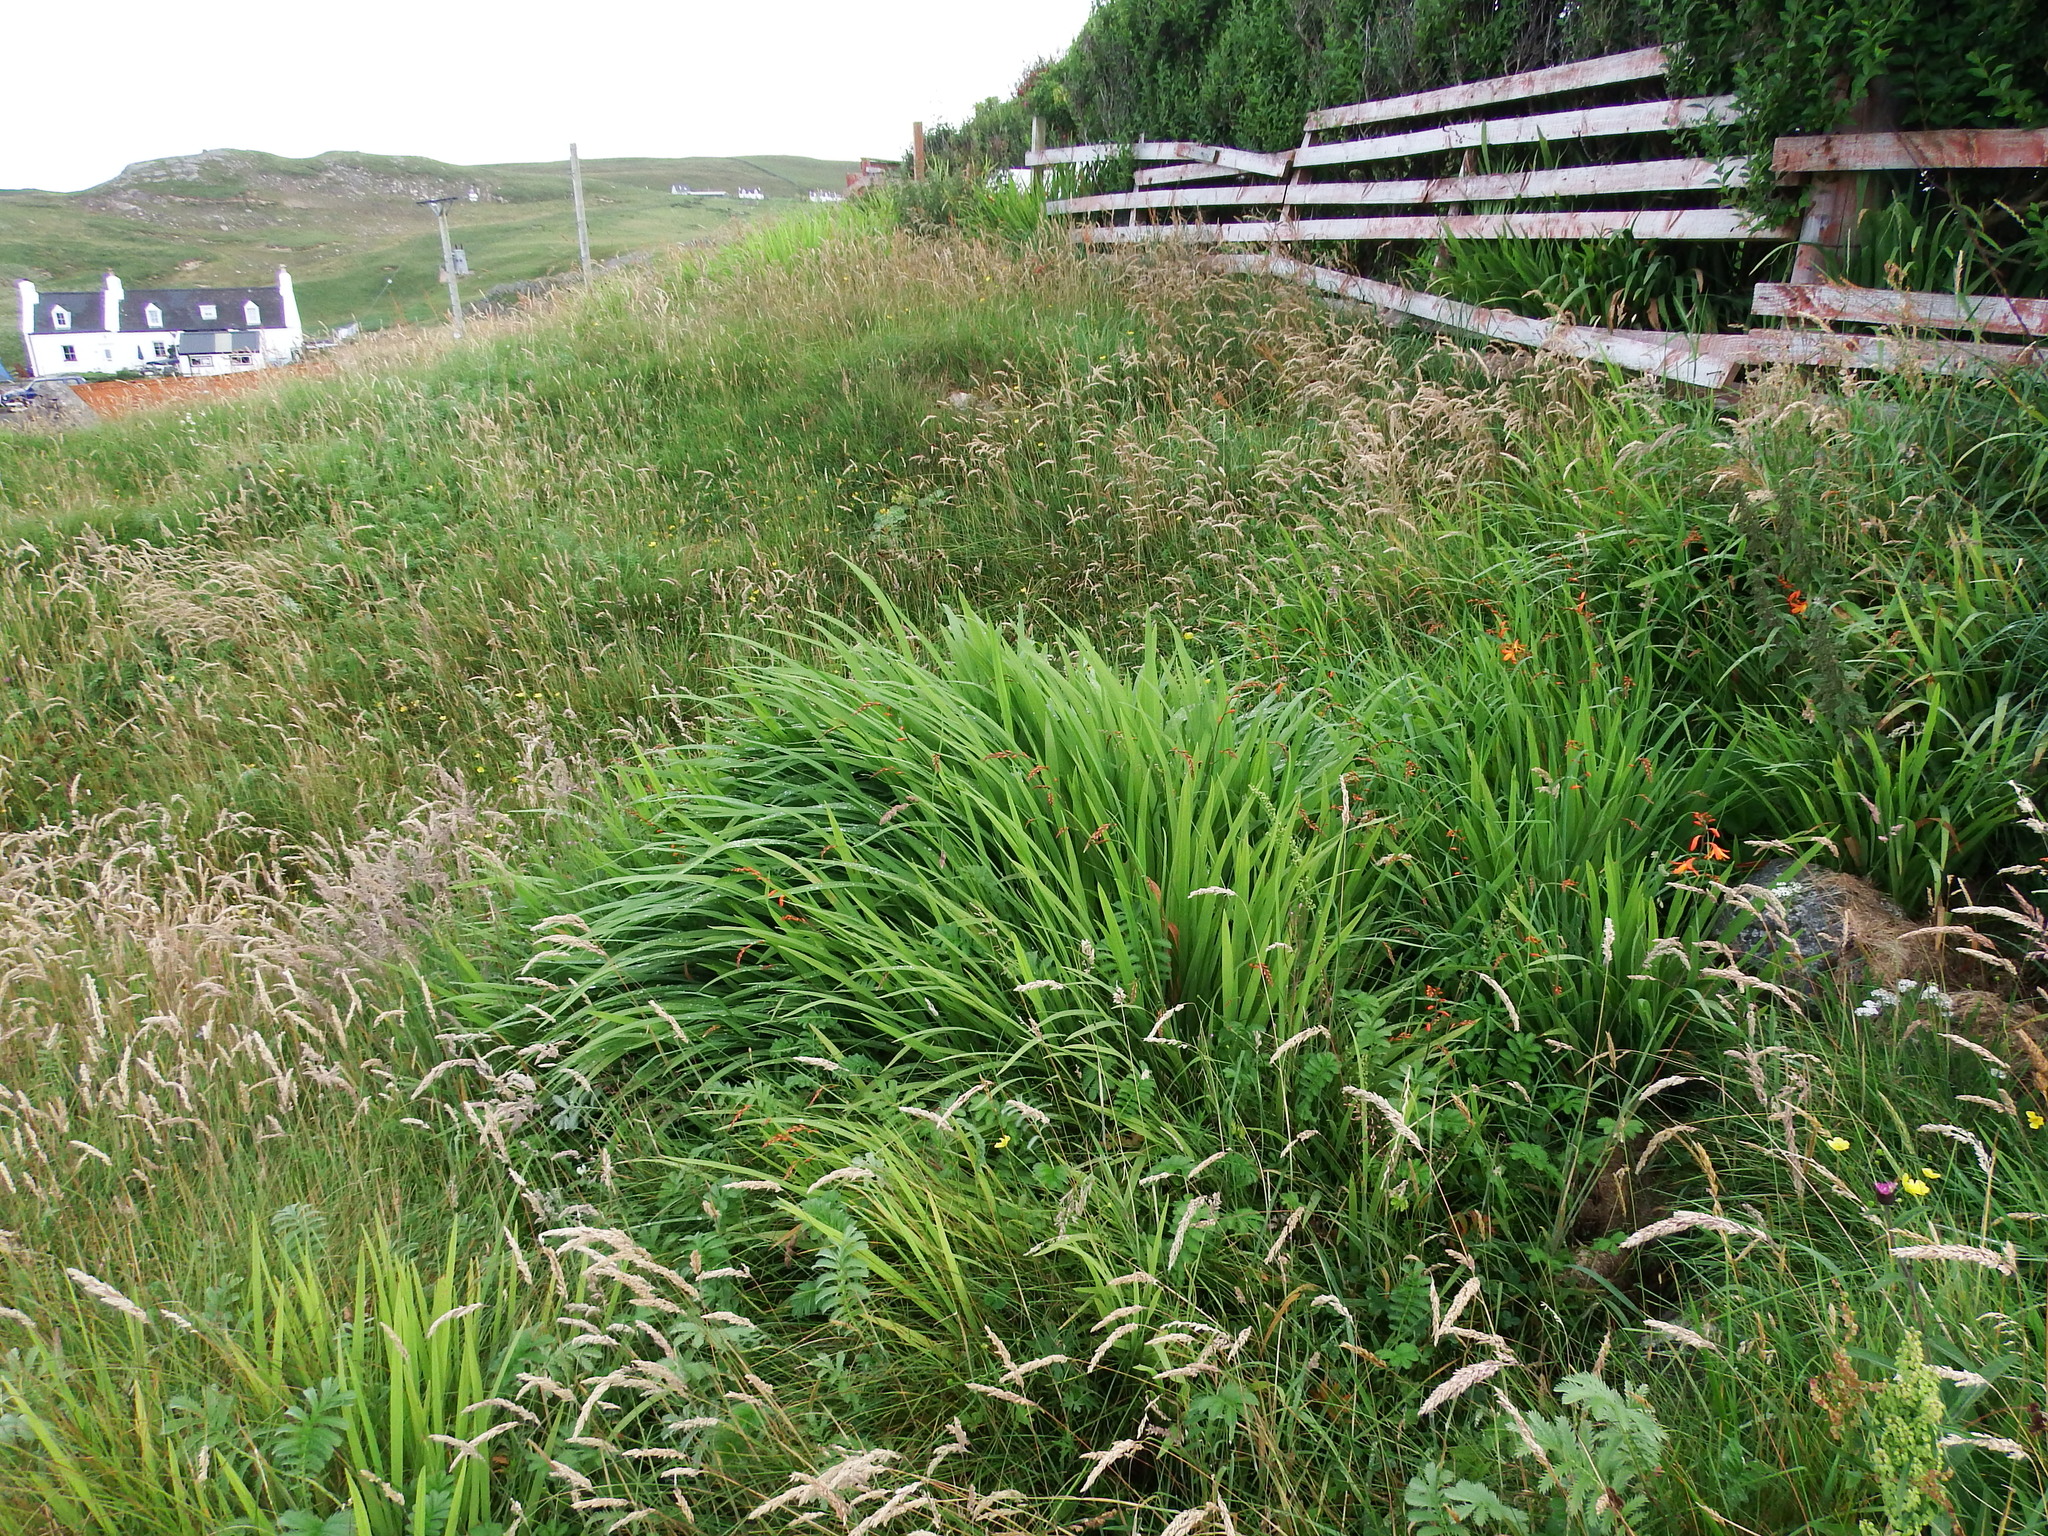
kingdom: Plantae
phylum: Tracheophyta
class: Liliopsida
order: Asparagales
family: Iridaceae
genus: Crocosmia
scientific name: Crocosmia crocosmiiflora
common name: Montbretia
